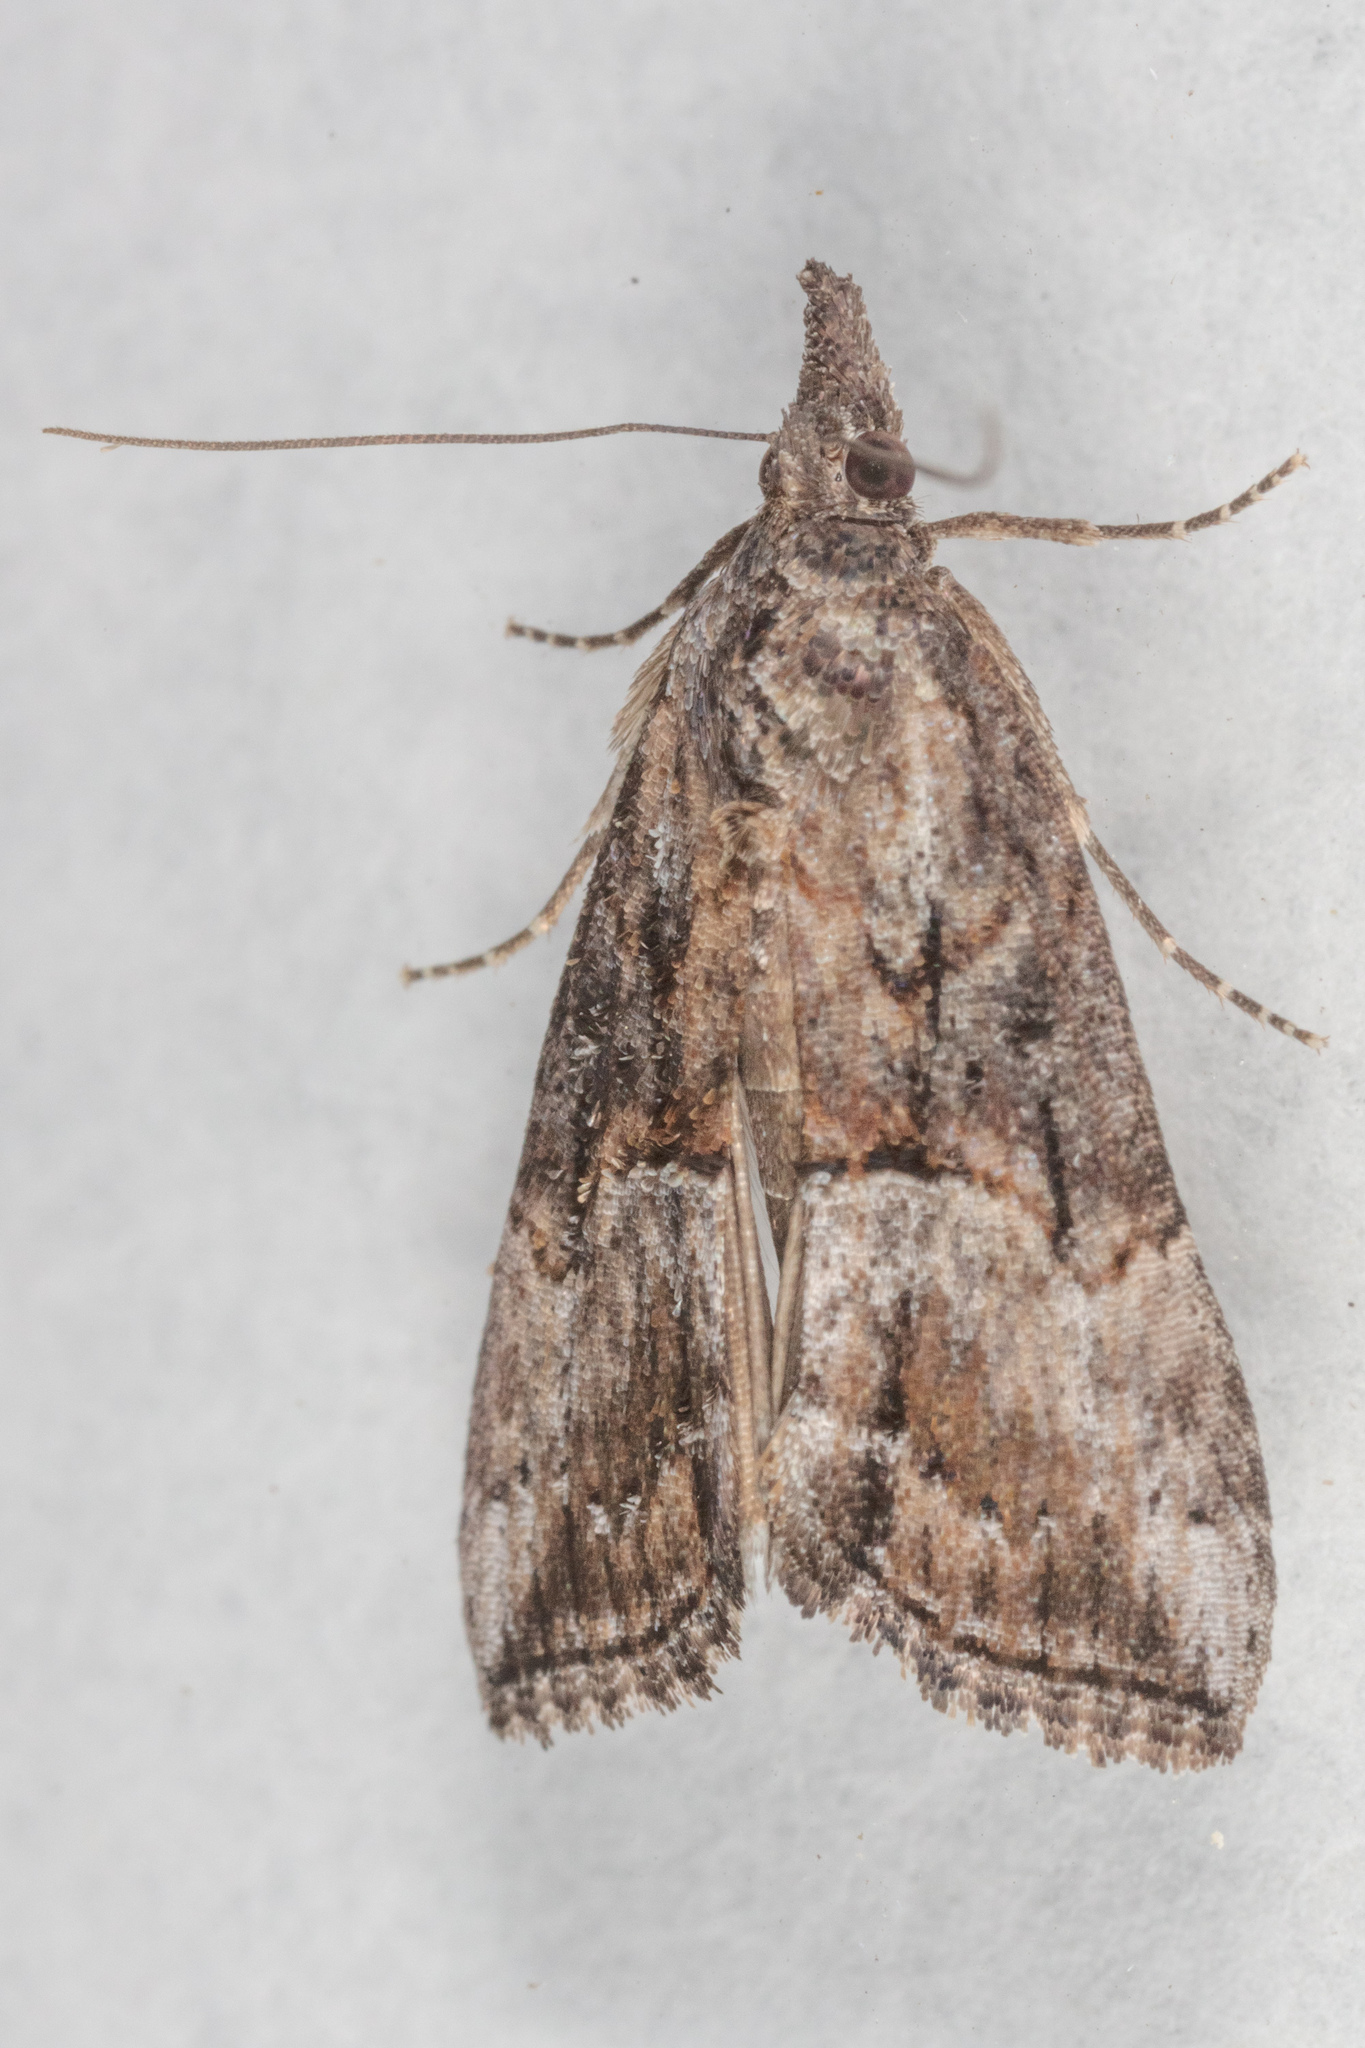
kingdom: Animalia
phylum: Arthropoda
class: Insecta
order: Lepidoptera
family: Erebidae
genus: Hypena
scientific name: Hypena scabra
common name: Green cloverworm
